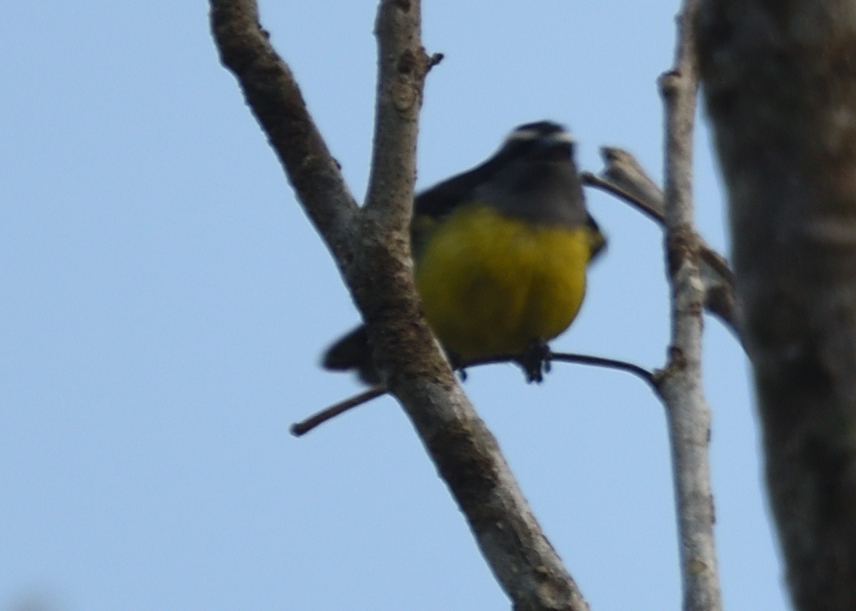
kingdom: Animalia
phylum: Chordata
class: Aves
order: Passeriformes
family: Thraupidae
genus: Coereba
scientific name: Coereba flaveola
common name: Bananaquit
